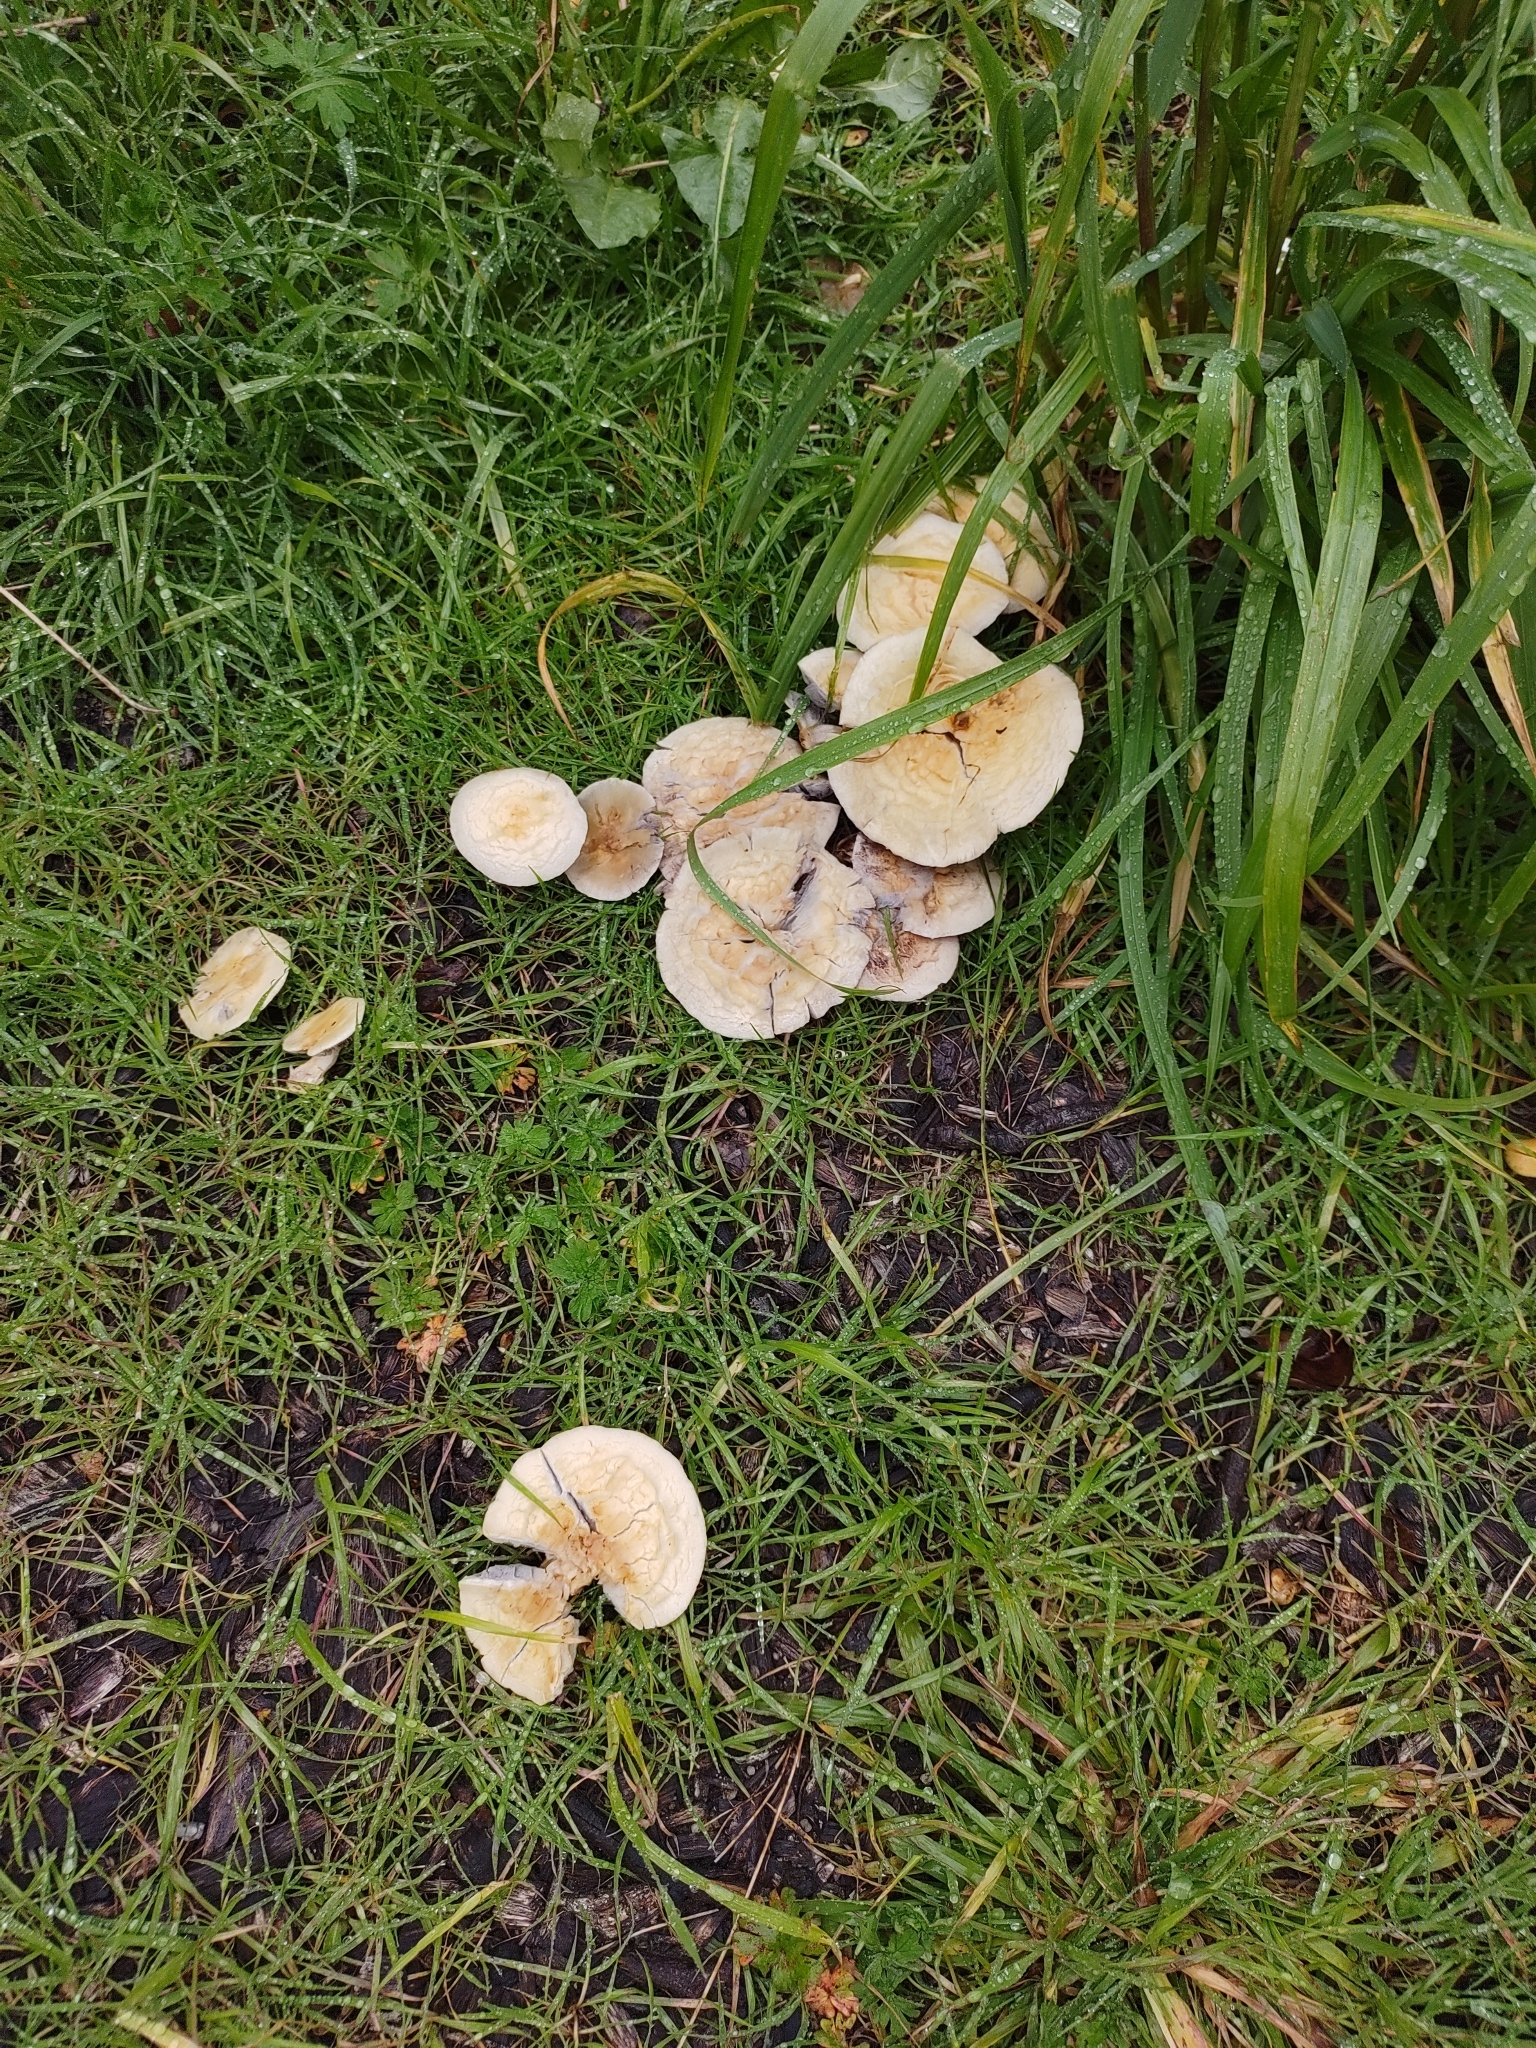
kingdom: Fungi
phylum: Basidiomycota
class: Agaricomycetes
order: Agaricales
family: Strophariaceae
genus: Leratiomyces
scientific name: Leratiomyces percevalii
